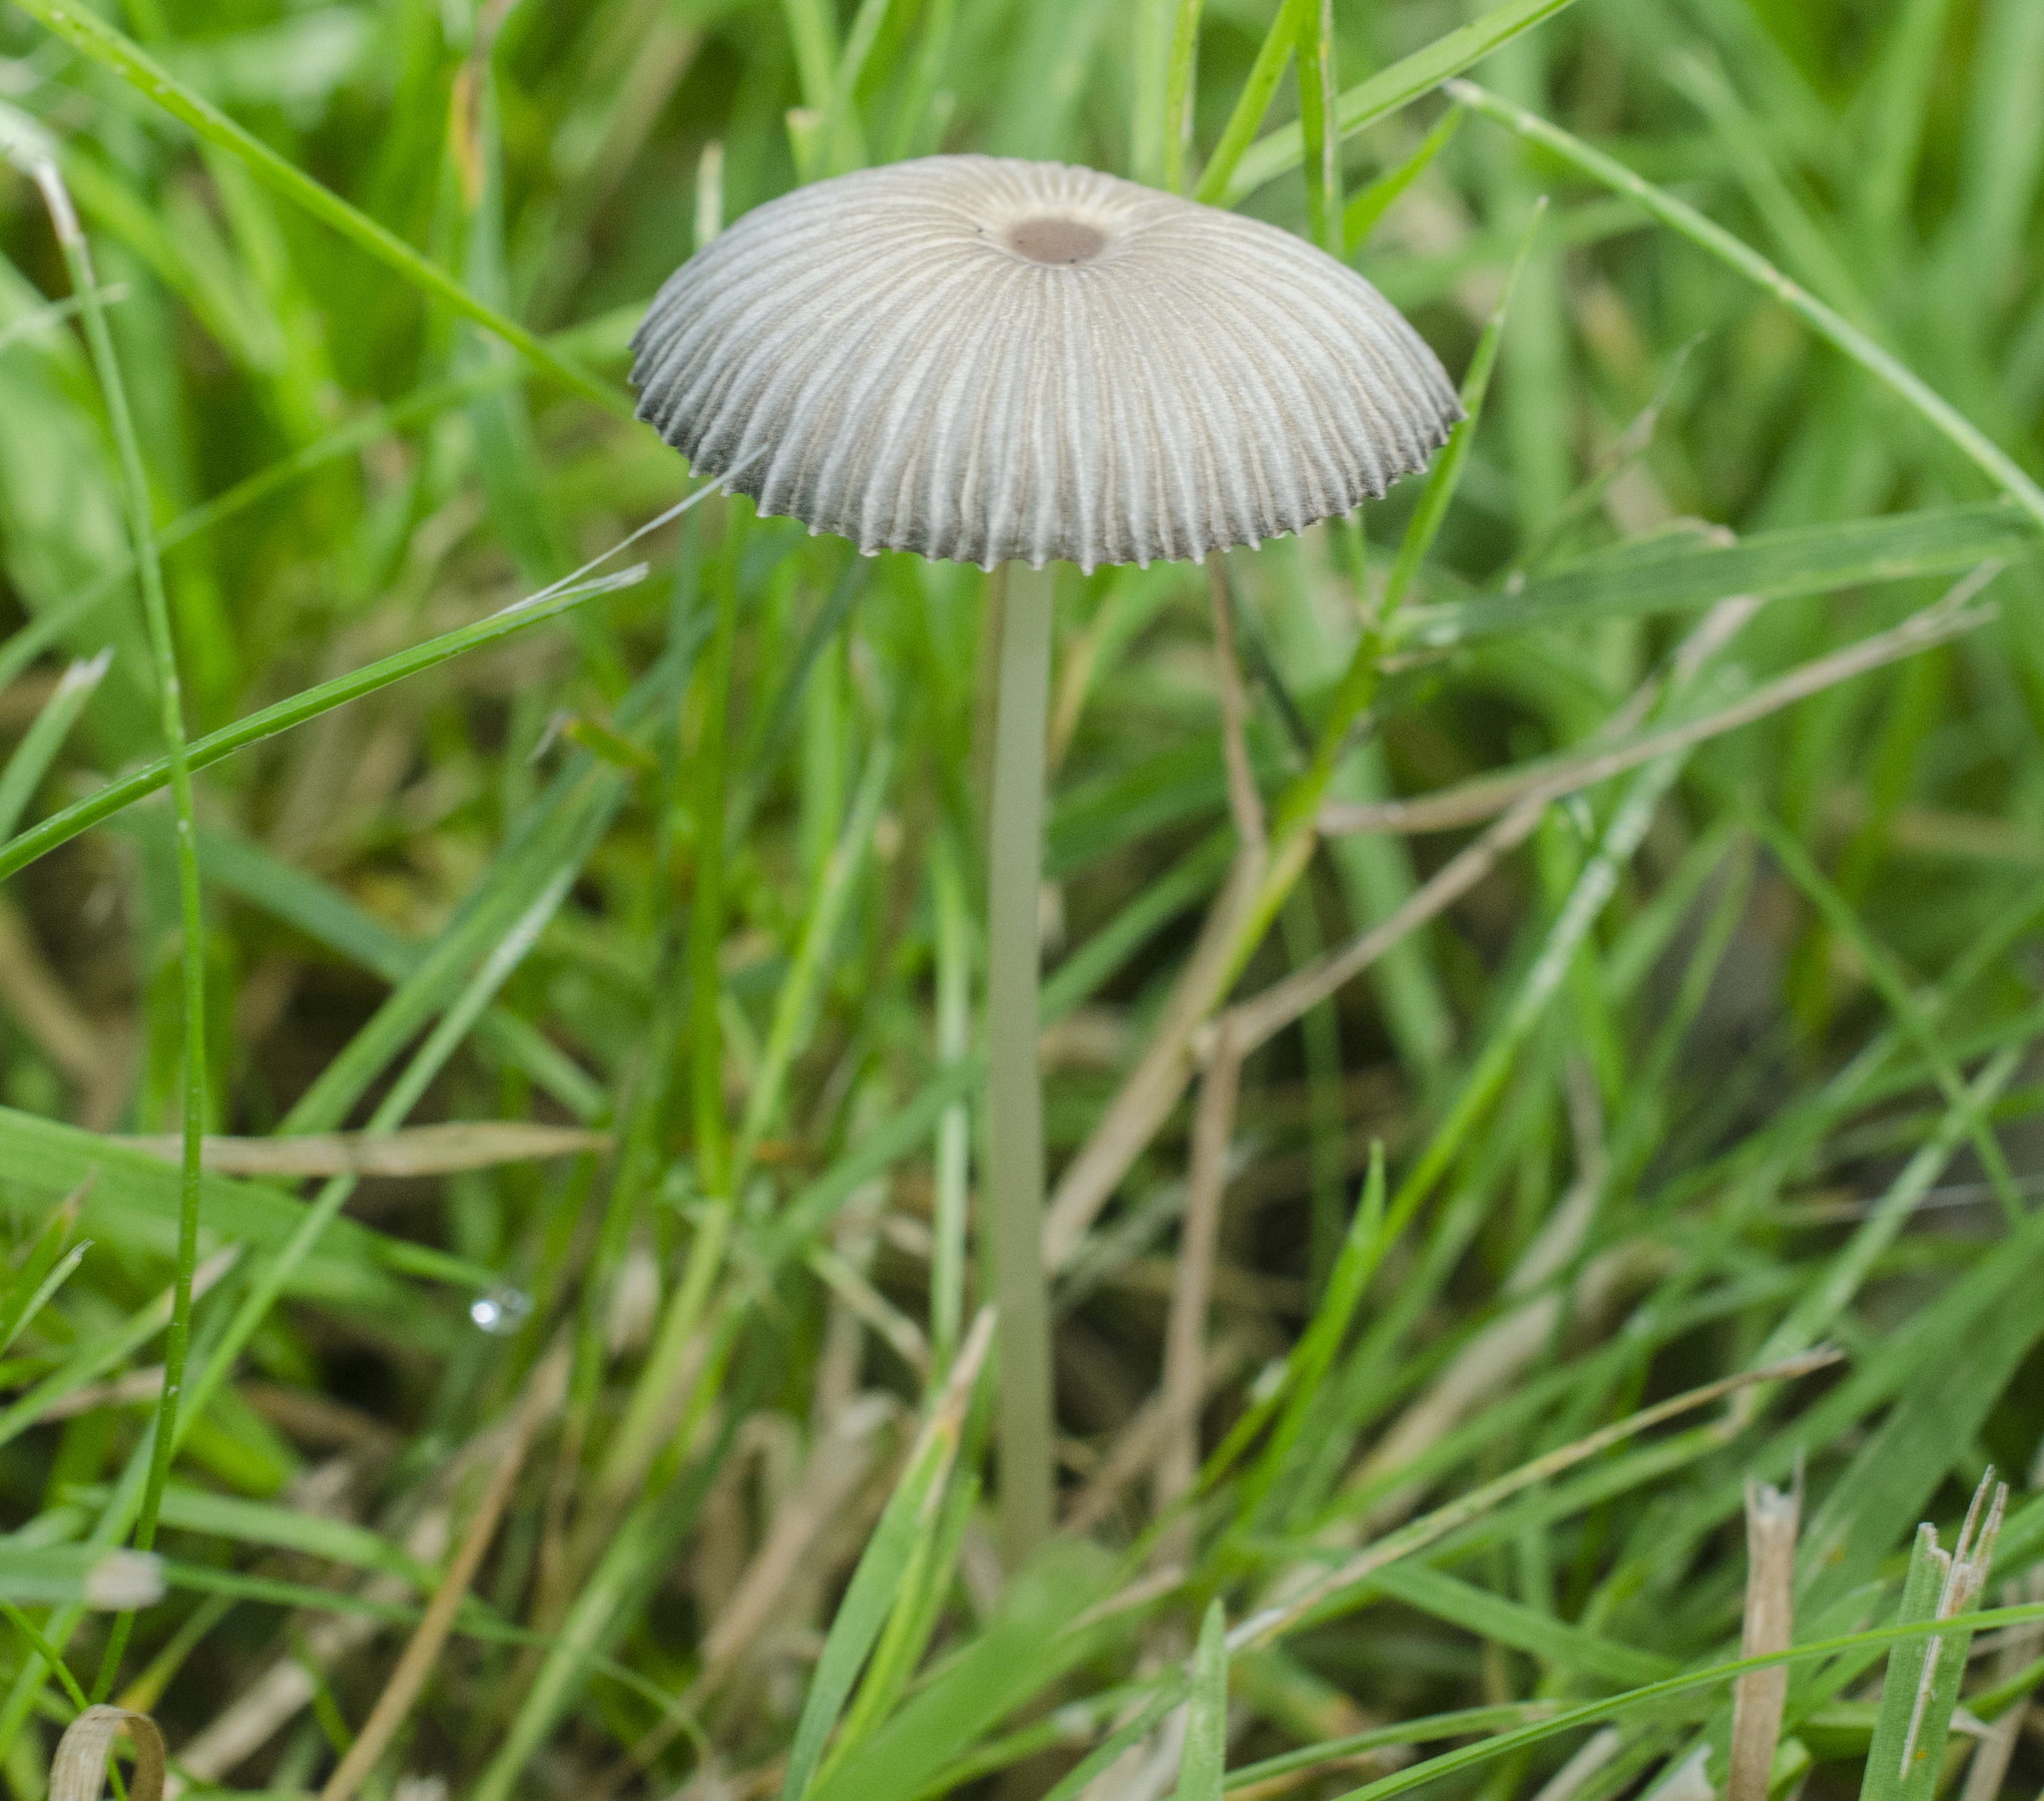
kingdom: Fungi
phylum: Basidiomycota
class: Agaricomycetes
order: Agaricales
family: Psathyrellaceae
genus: Parasola
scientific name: Parasola plicatilis
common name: Pleated inkcap
